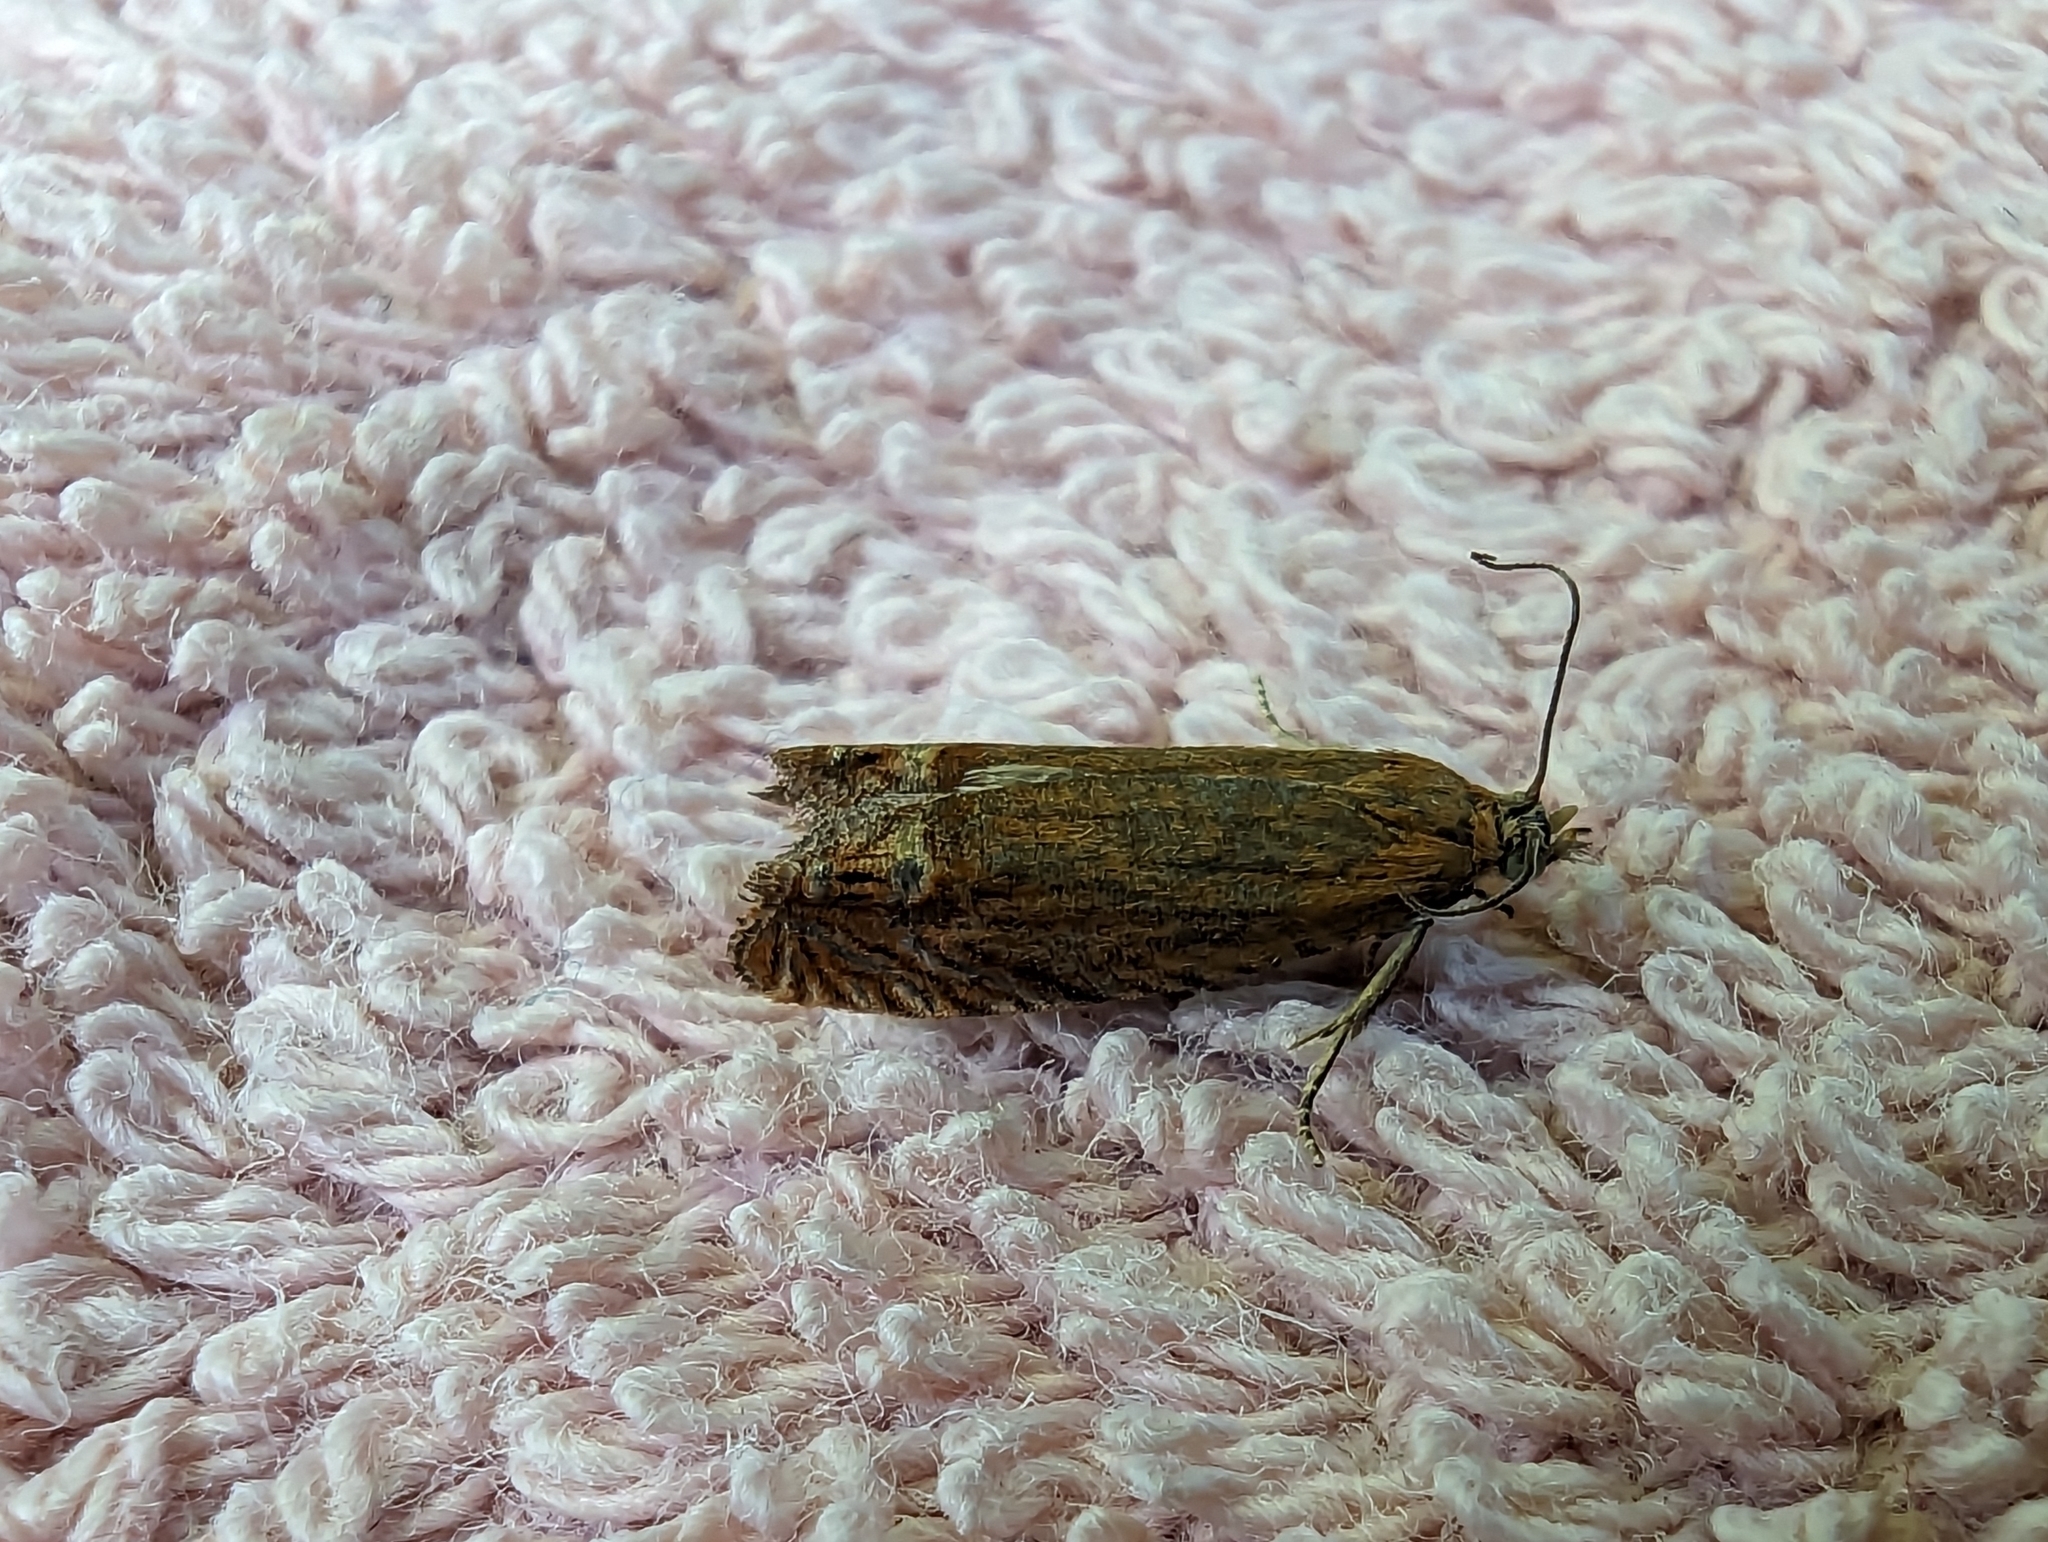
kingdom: Animalia
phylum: Arthropoda
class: Insecta
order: Lepidoptera
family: Tortricidae
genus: Lathronympha
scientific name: Lathronympha strigana
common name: Red piercer
